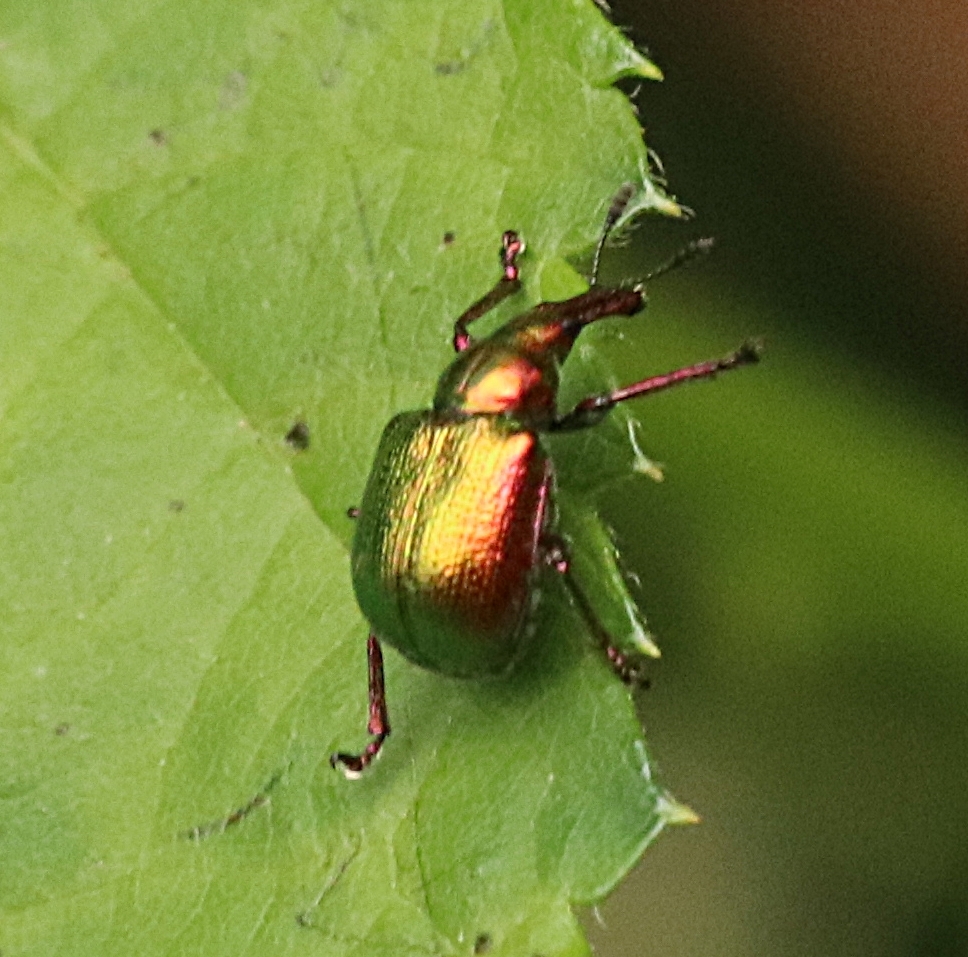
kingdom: Animalia
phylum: Arthropoda
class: Insecta
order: Coleoptera
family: Attelabidae
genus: Byctiscus
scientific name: Byctiscus betulae
